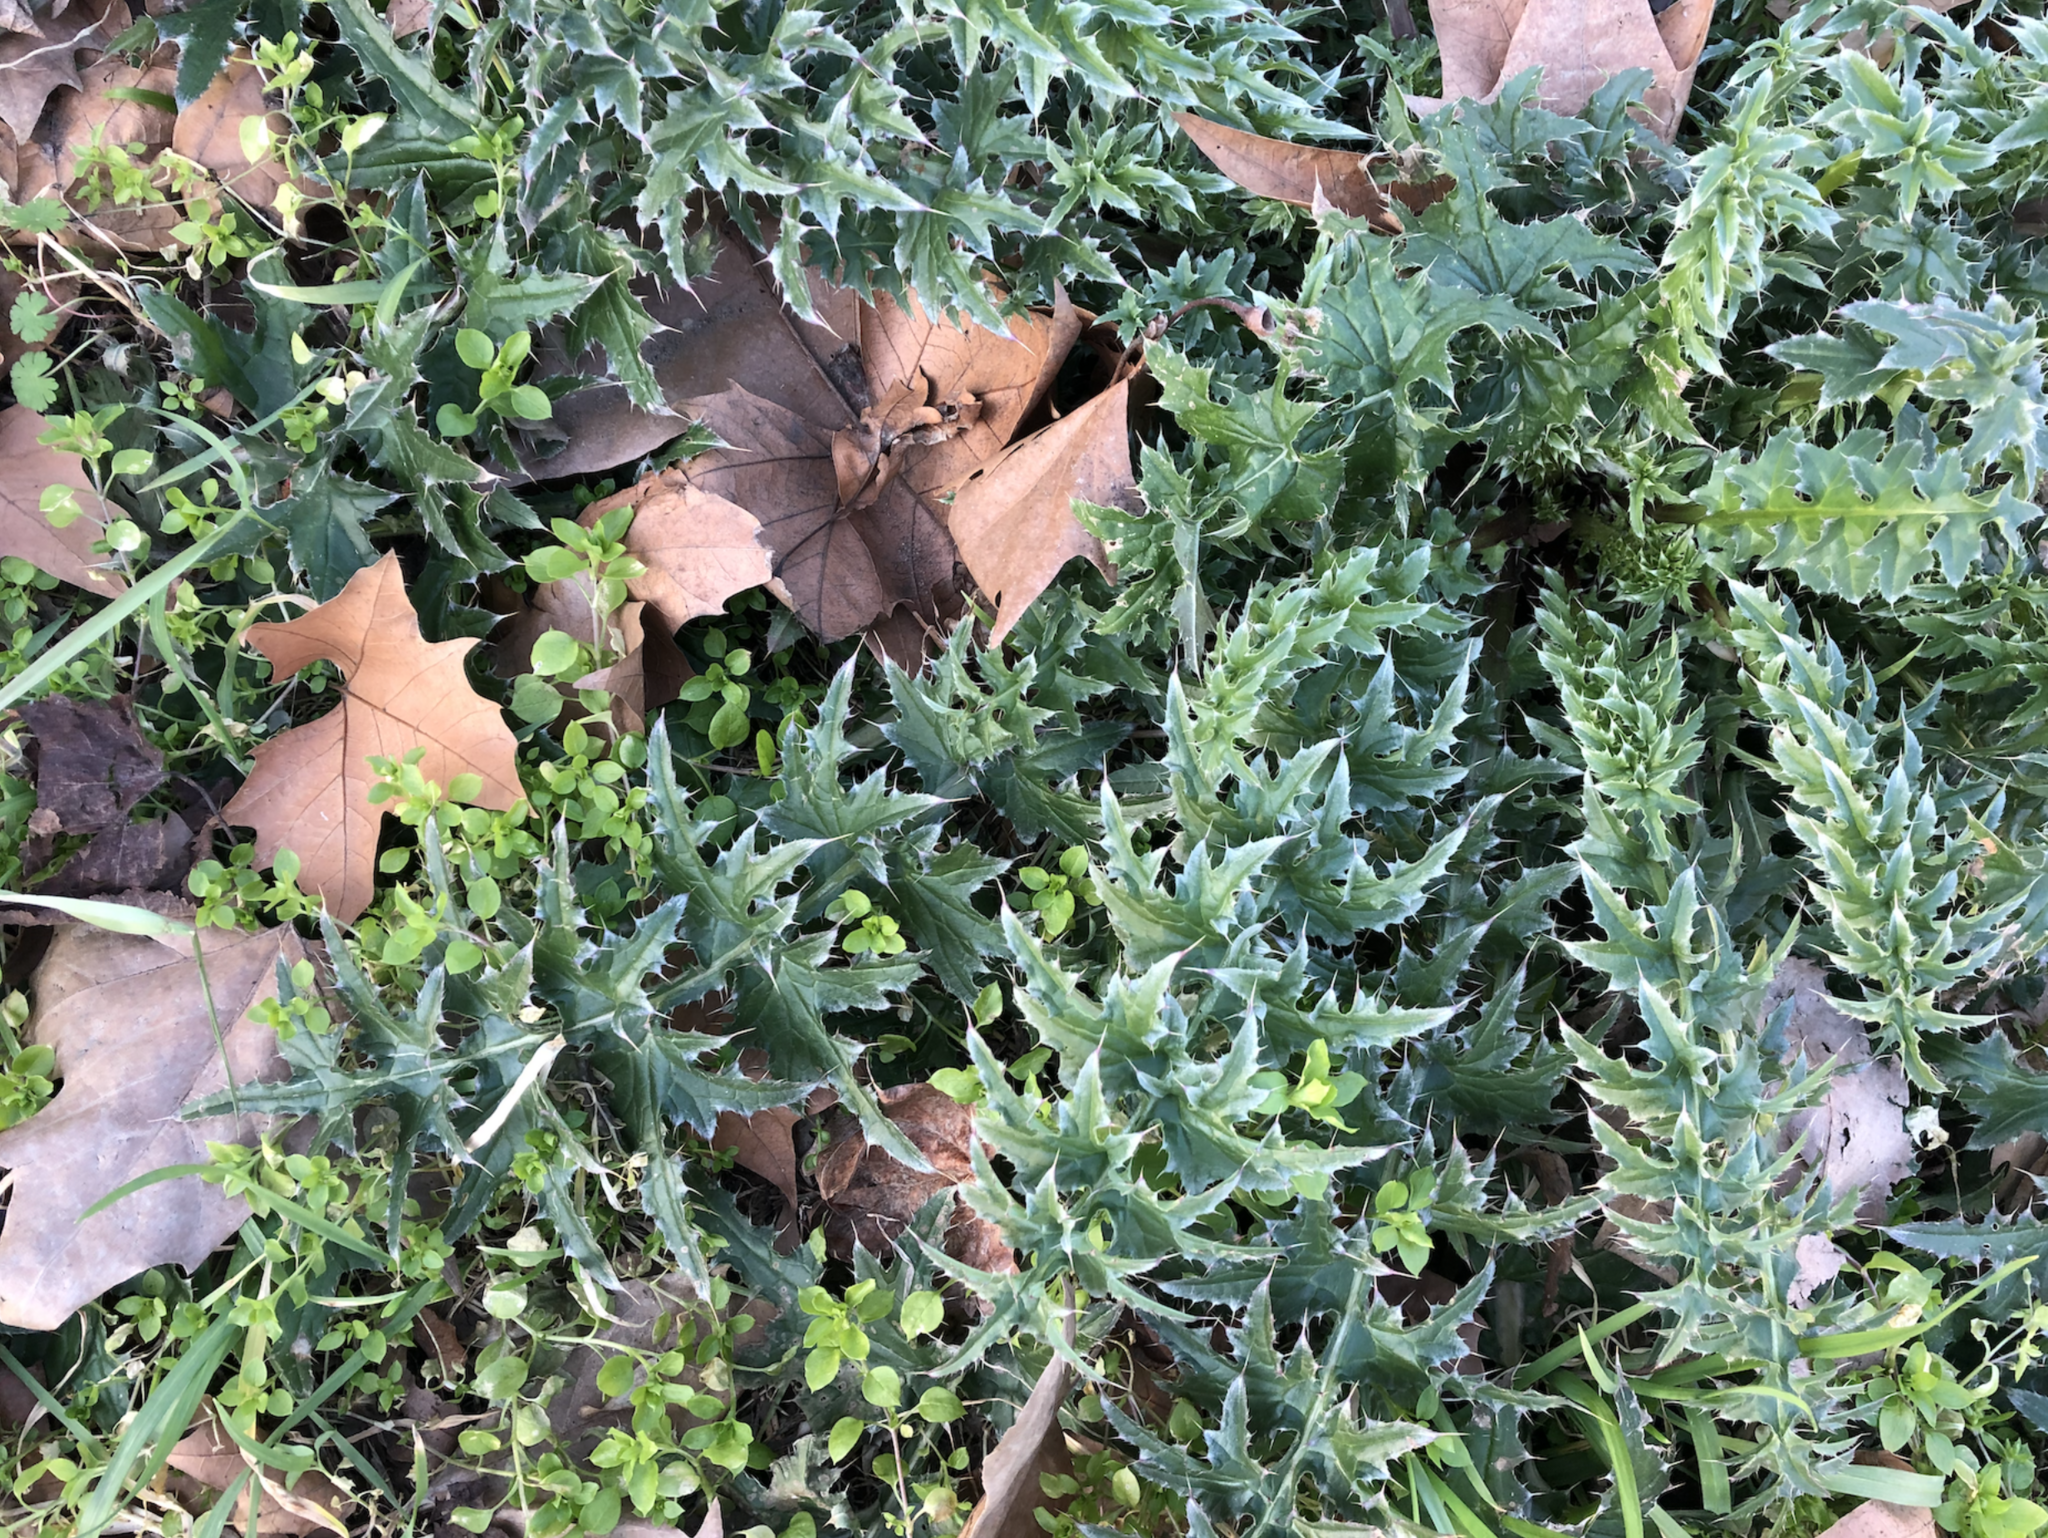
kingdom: Plantae
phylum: Tracheophyta
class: Magnoliopsida
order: Asterales
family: Asteraceae
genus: Cirsium
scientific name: Cirsium vulgare
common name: Bull thistle
